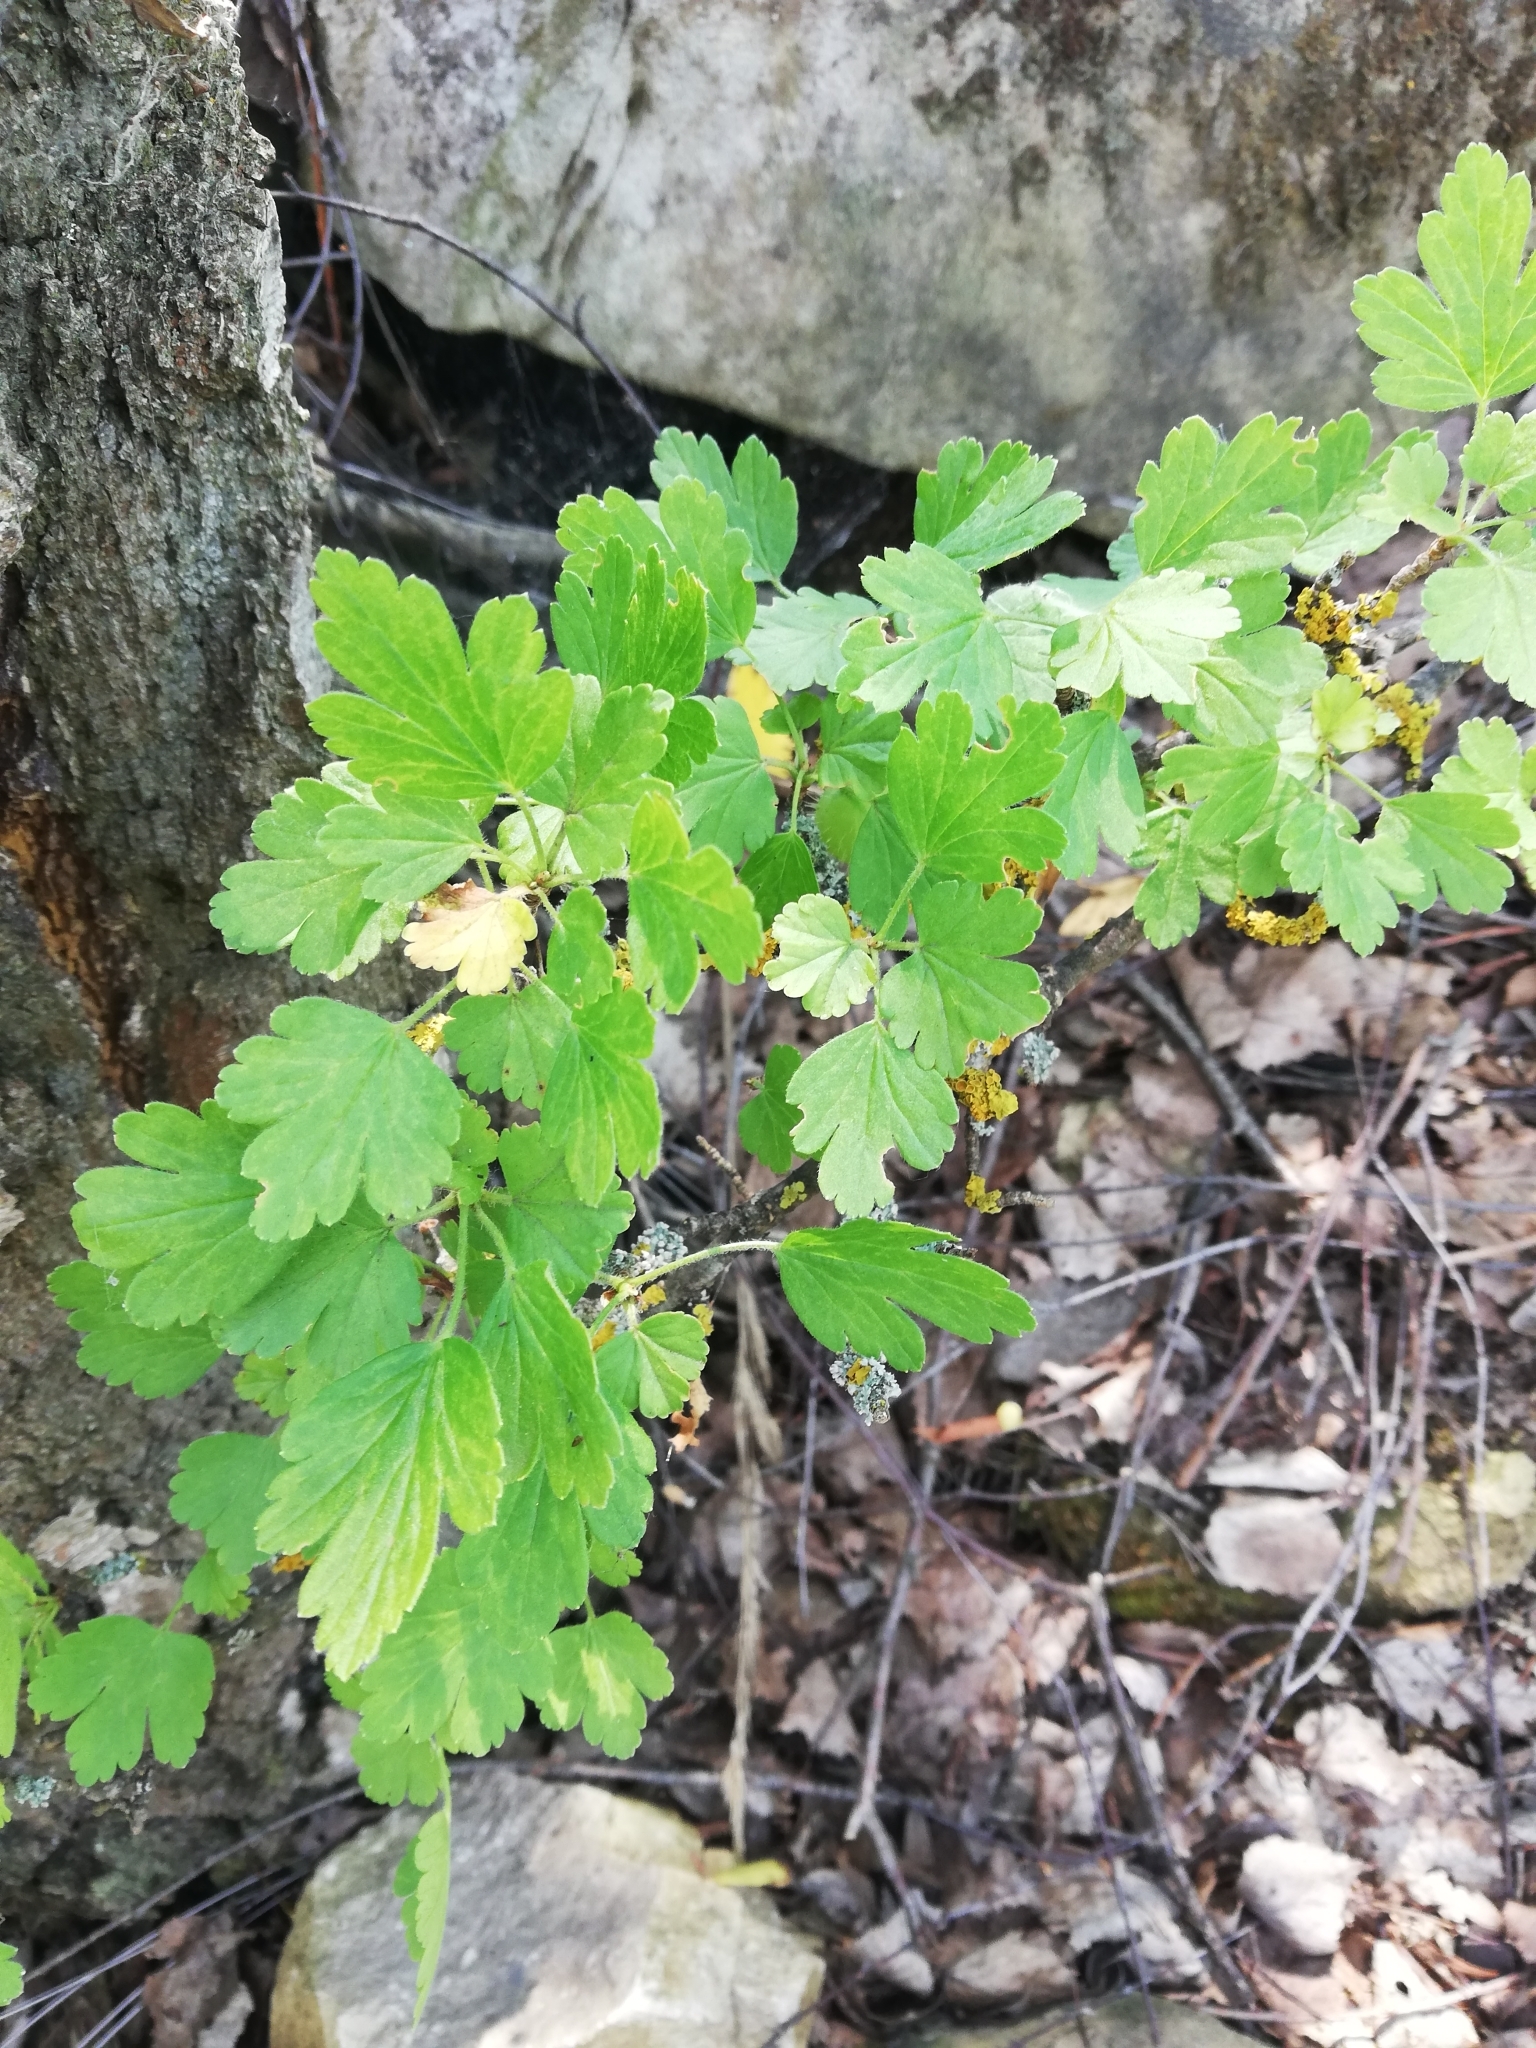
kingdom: Plantae
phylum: Tracheophyta
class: Magnoliopsida
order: Saxifragales
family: Grossulariaceae
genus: Ribes
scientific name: Ribes uva-crispa
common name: Gooseberry
